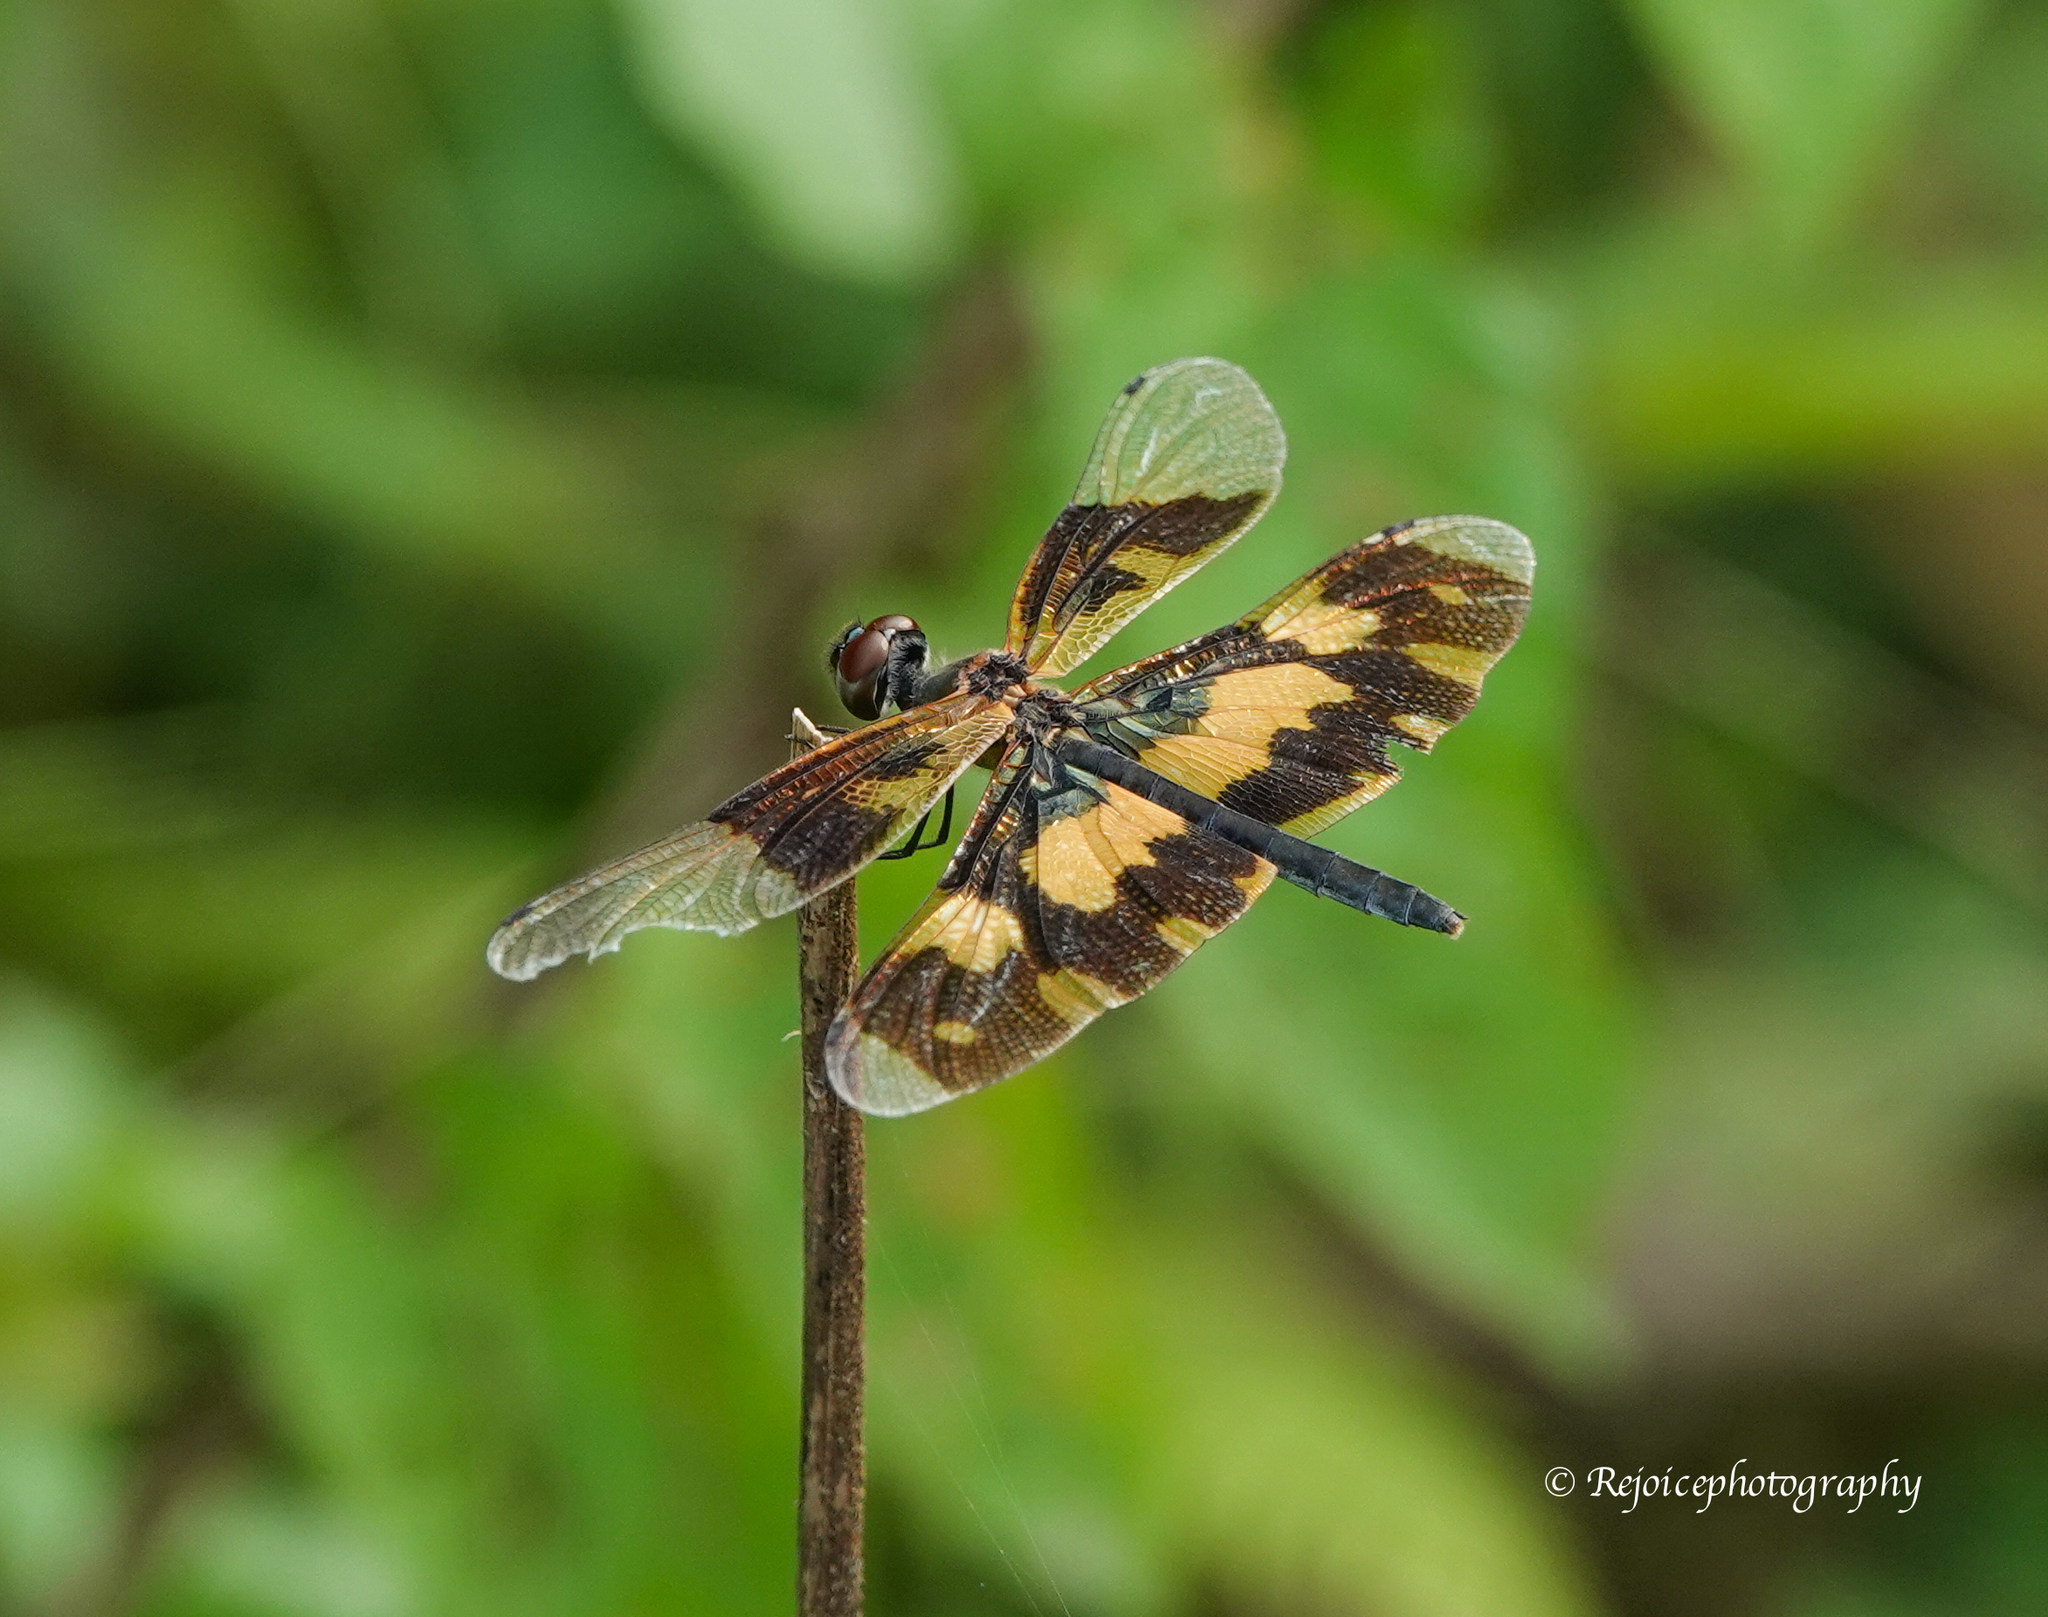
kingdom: Animalia
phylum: Arthropoda
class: Insecta
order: Odonata
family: Libellulidae
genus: Rhyothemis
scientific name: Rhyothemis variegata
